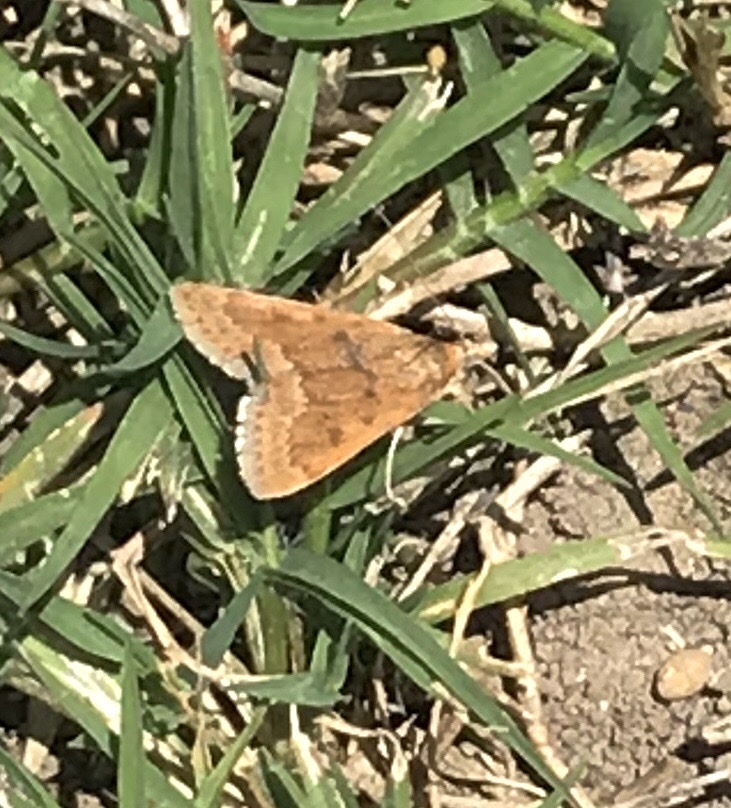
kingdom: Animalia
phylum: Arthropoda
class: Insecta
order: Lepidoptera
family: Crambidae
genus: Achyra
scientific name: Achyra rantalis
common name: Garden webworm
